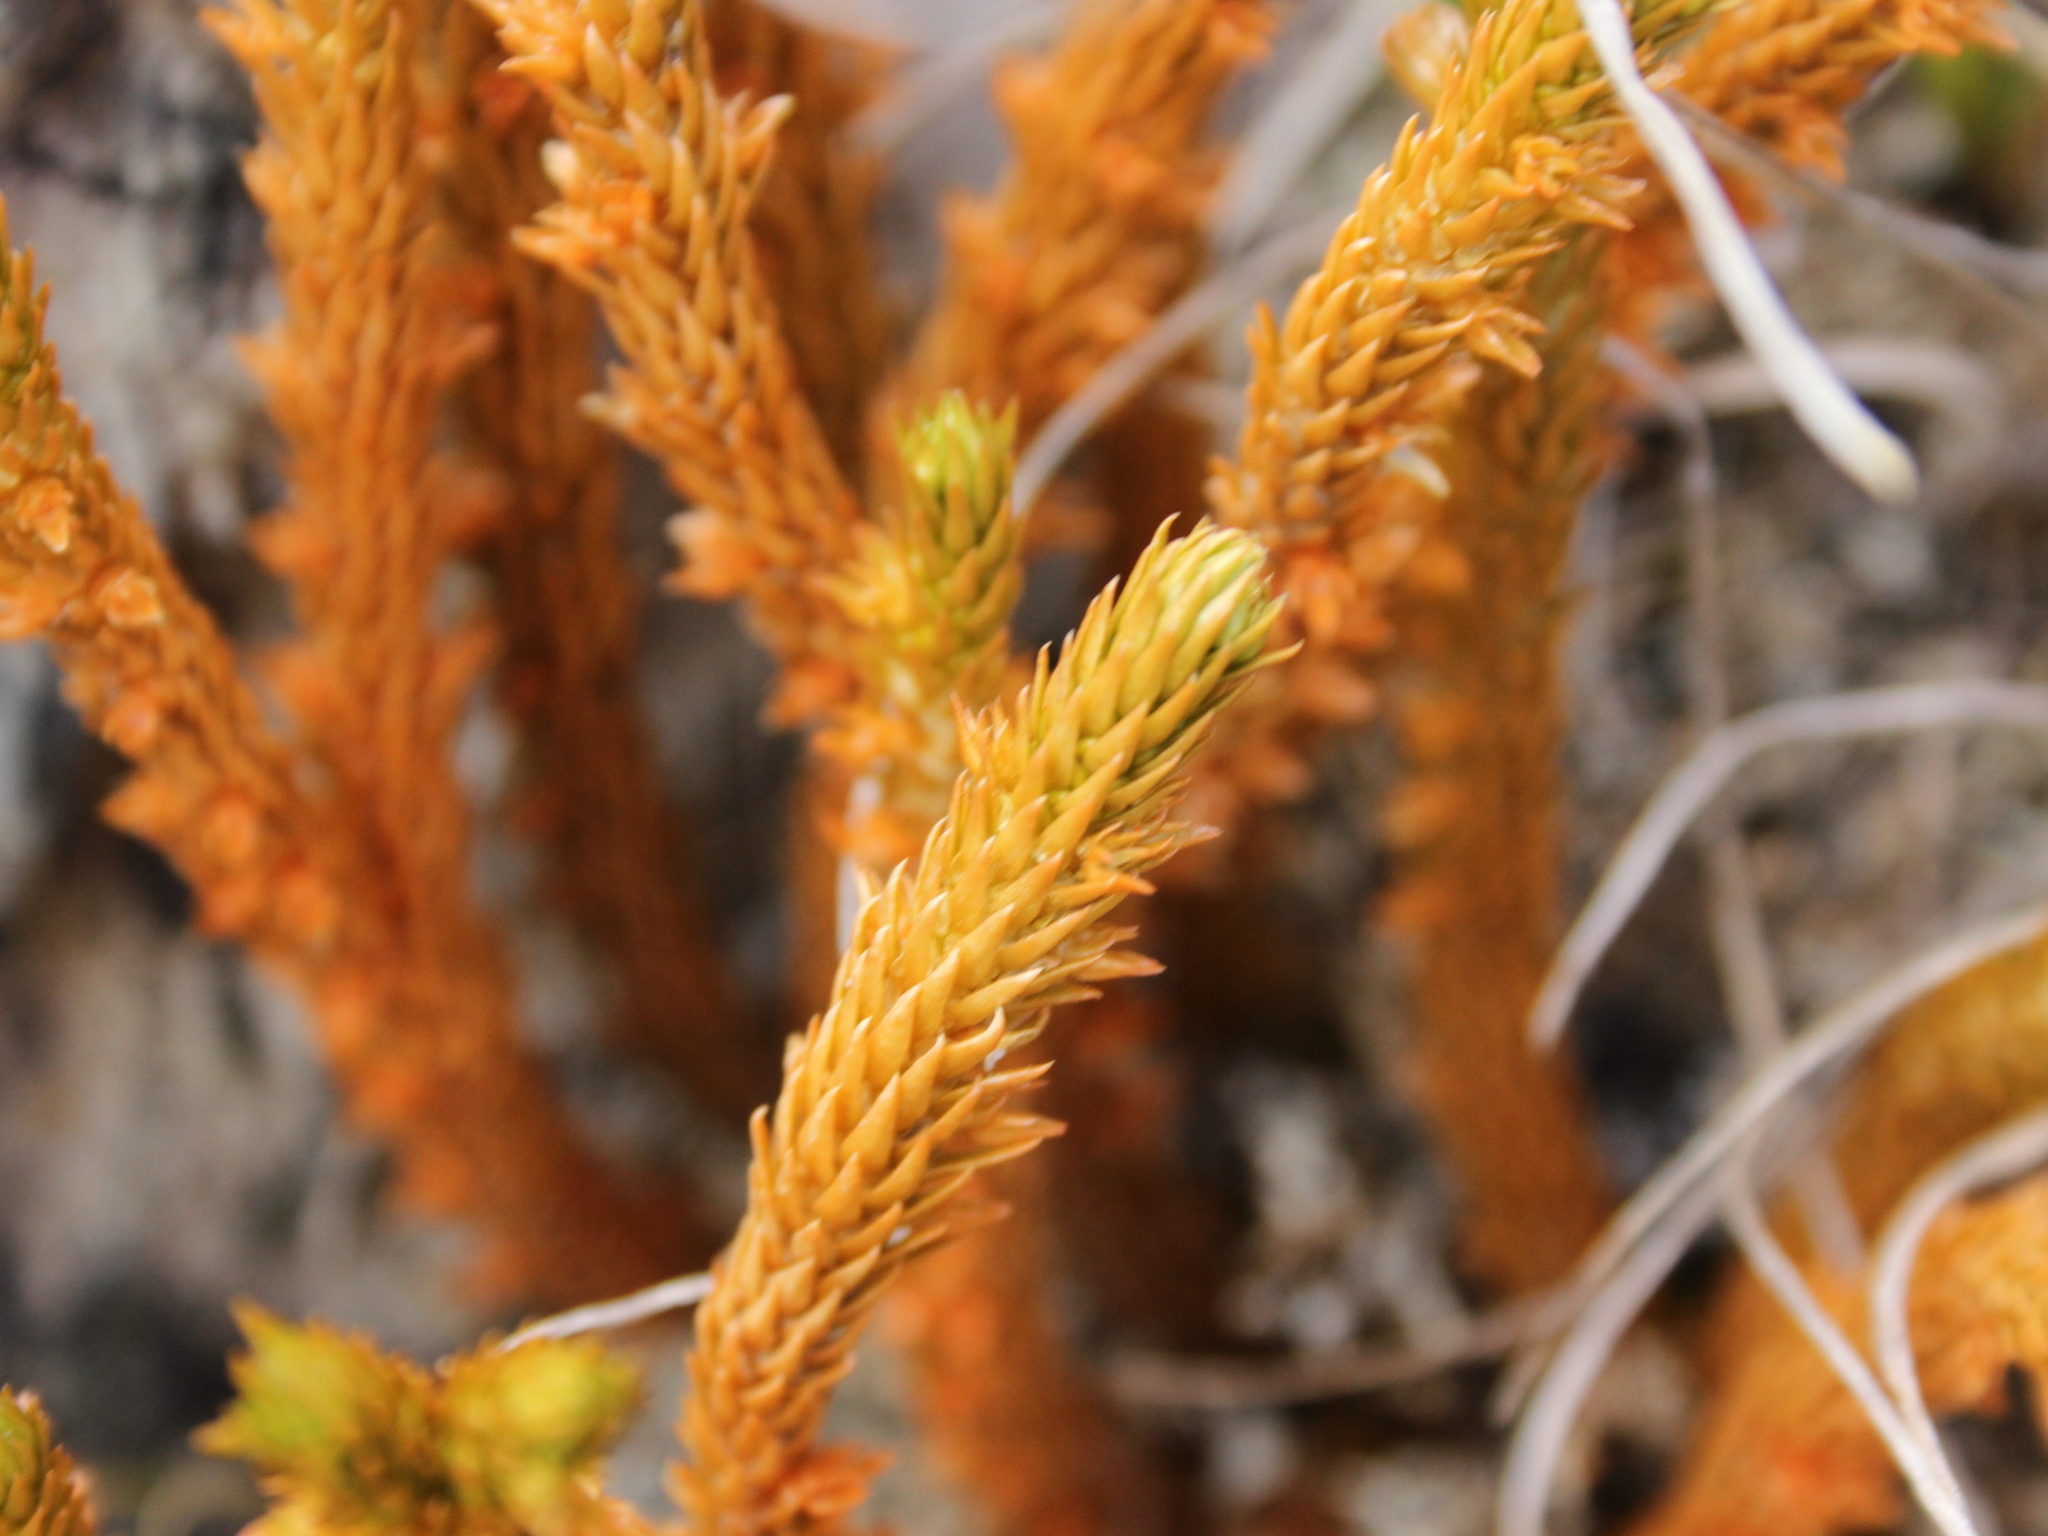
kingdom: Plantae
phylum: Tracheophyta
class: Lycopodiopsida
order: Lycopodiales
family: Lycopodiaceae
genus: Huperzia
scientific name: Huperzia australiana
